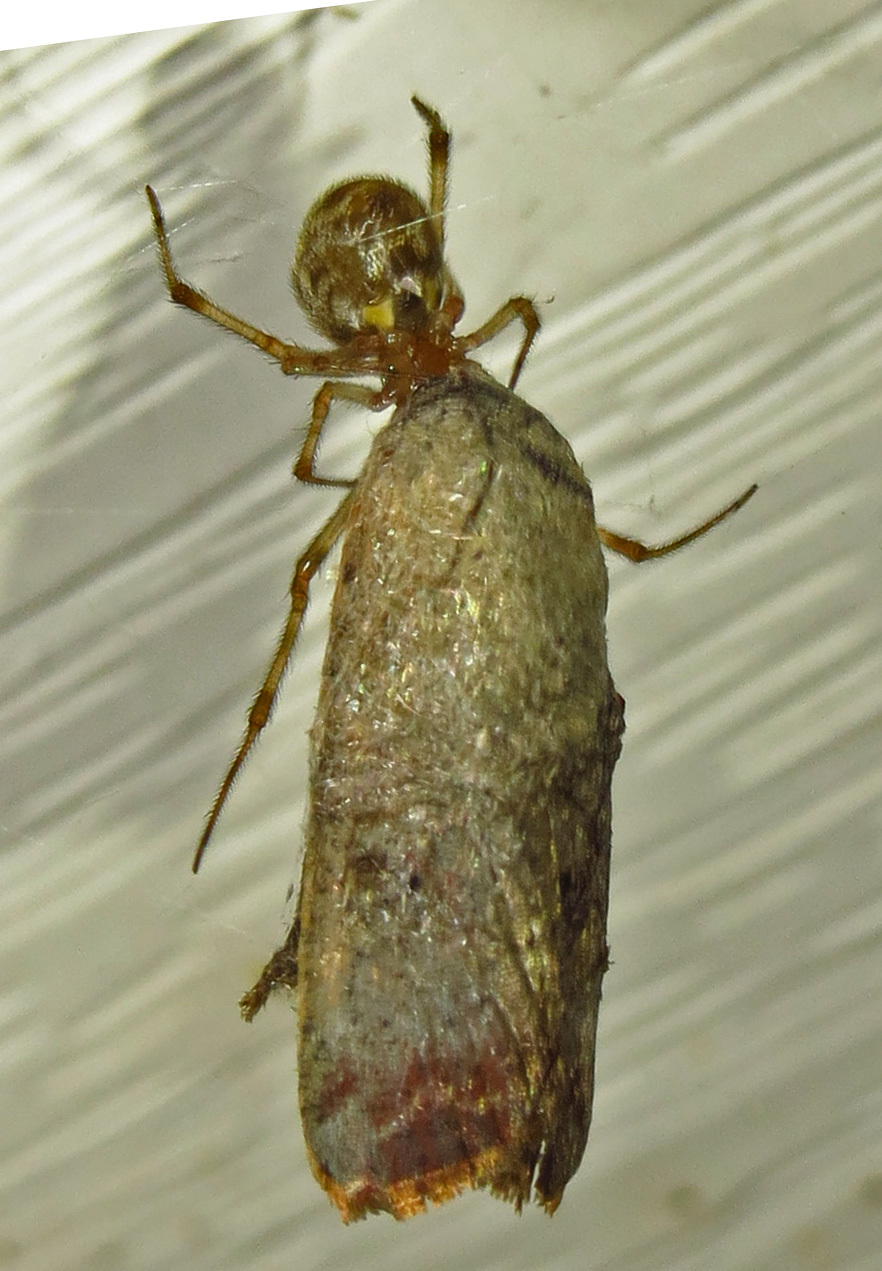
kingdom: Animalia
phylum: Arthropoda
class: Insecta
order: Lepidoptera
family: Noctuidae
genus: Anicla
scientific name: Anicla infecta
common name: Green cutworm
